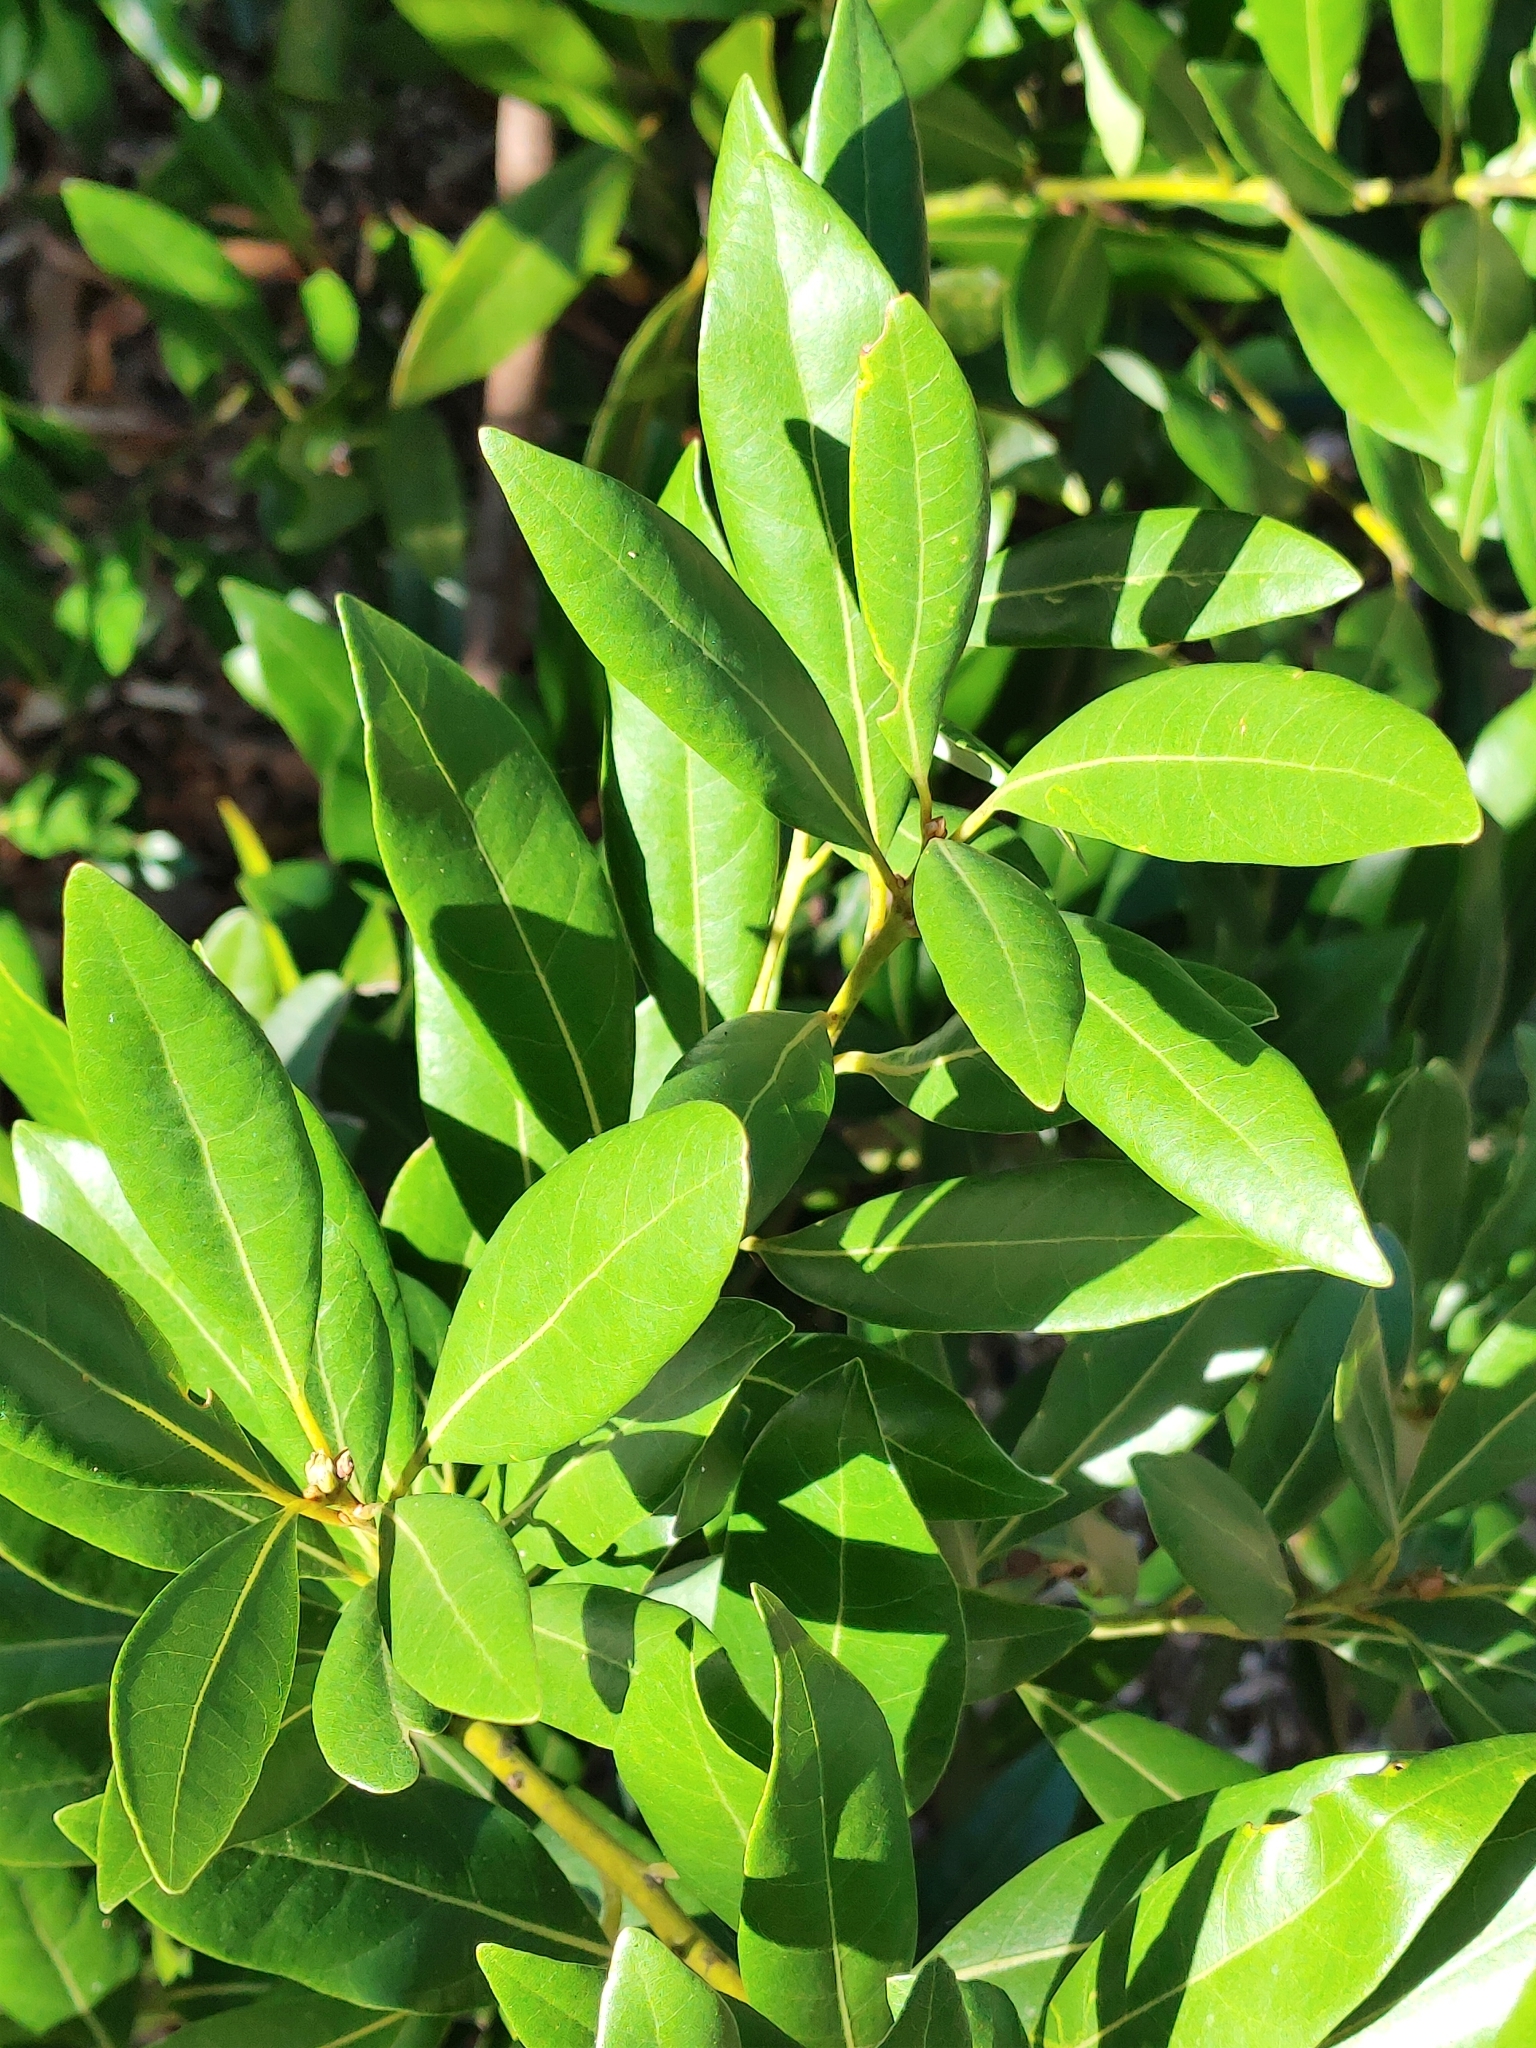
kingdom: Plantae
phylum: Tracheophyta
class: Magnoliopsida
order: Laurales
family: Lauraceae
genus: Persea
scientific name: Persea borbonia
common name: Redbay
